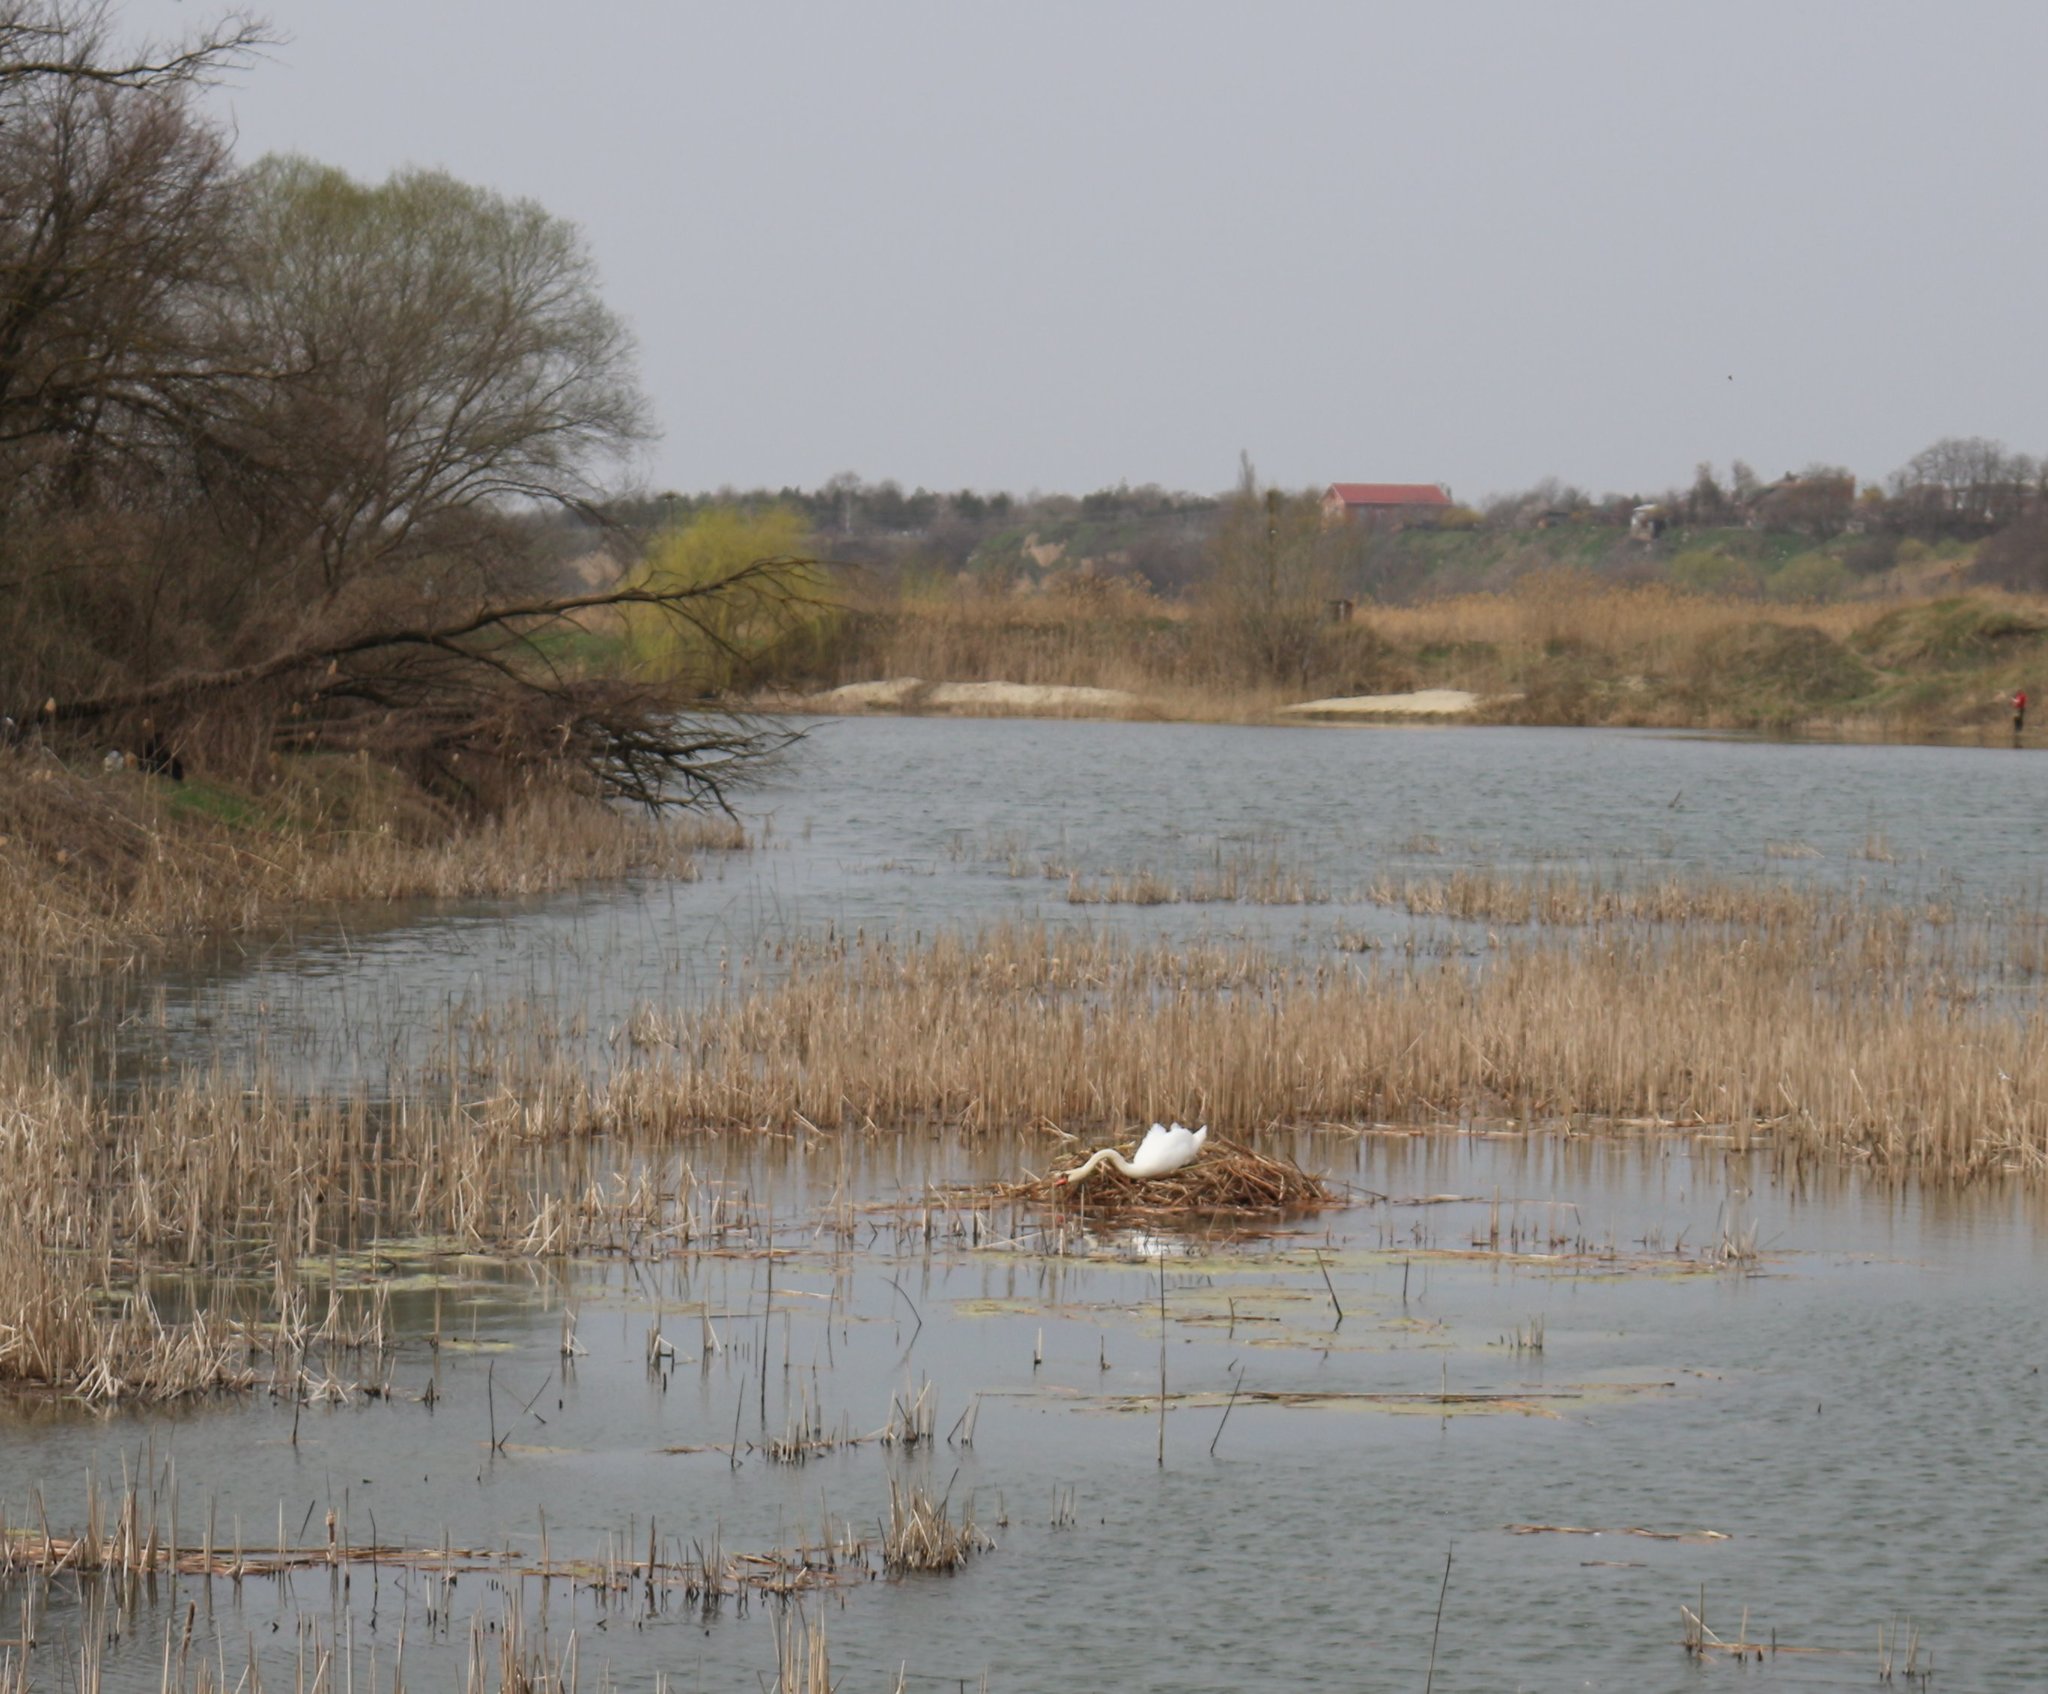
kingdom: Animalia
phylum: Chordata
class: Aves
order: Anseriformes
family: Anatidae
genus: Cygnus
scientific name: Cygnus olor
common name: Mute swan
